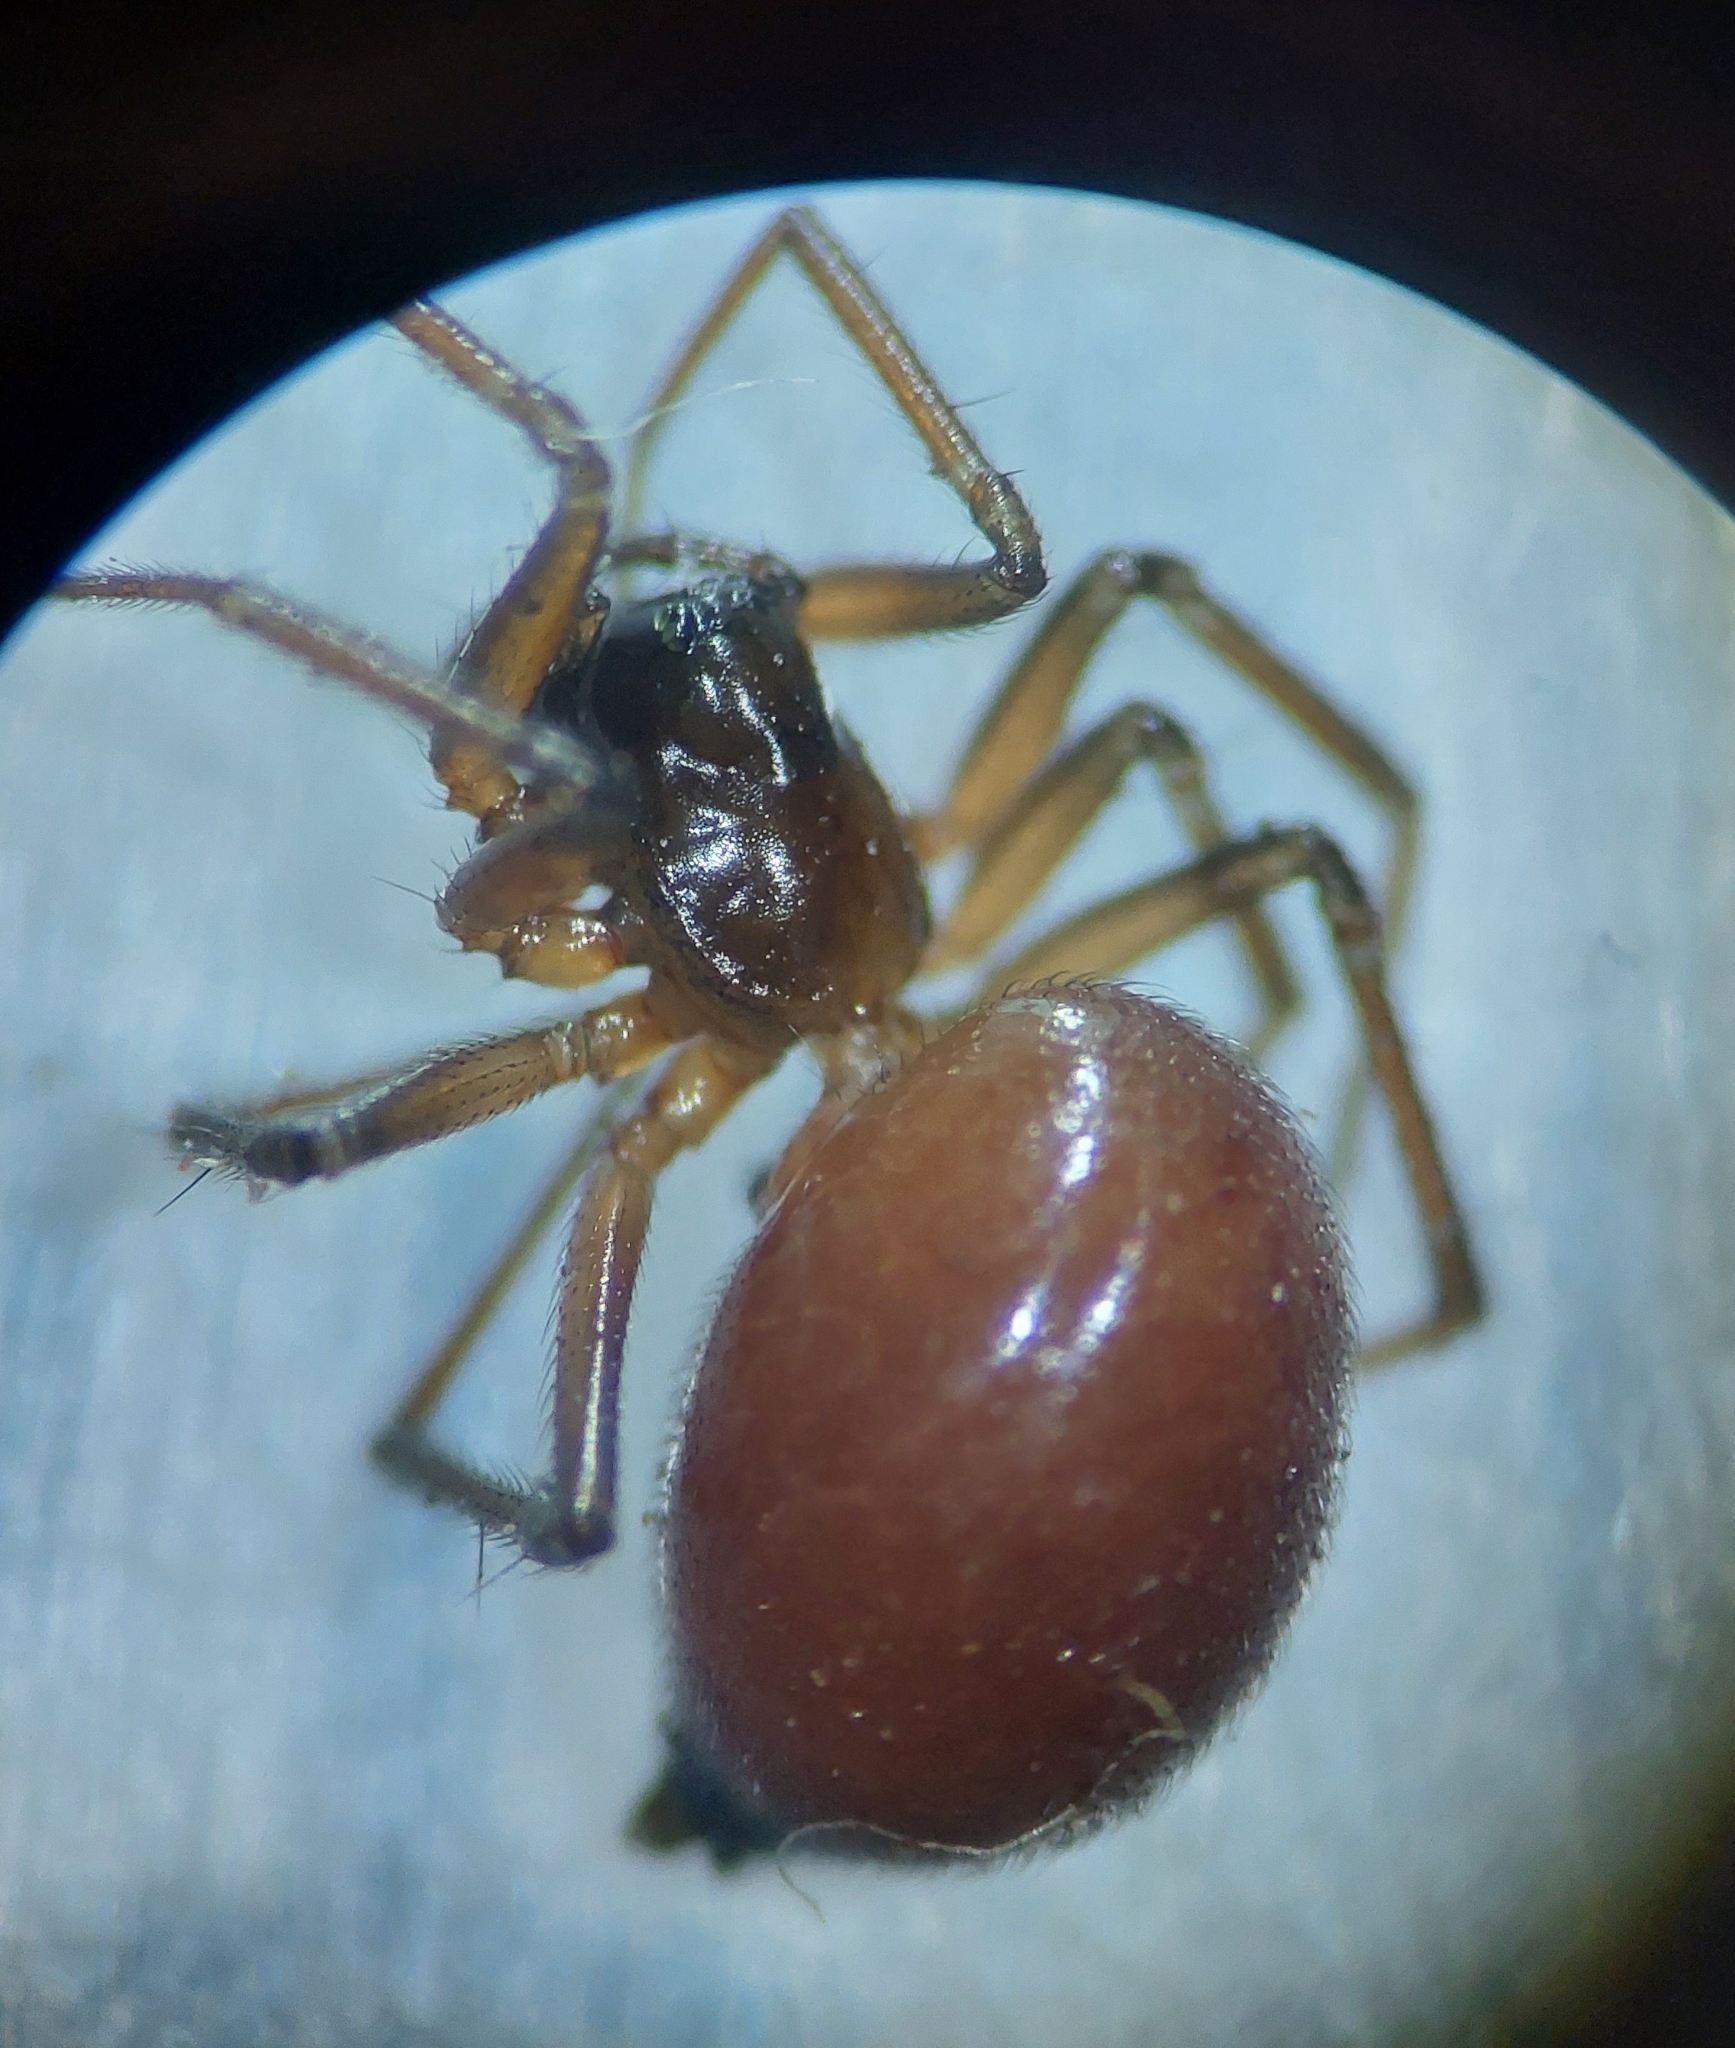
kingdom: Animalia
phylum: Arthropoda
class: Arachnida
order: Araneae
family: Linyphiidae
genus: Ostearius
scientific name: Ostearius melanopygius
